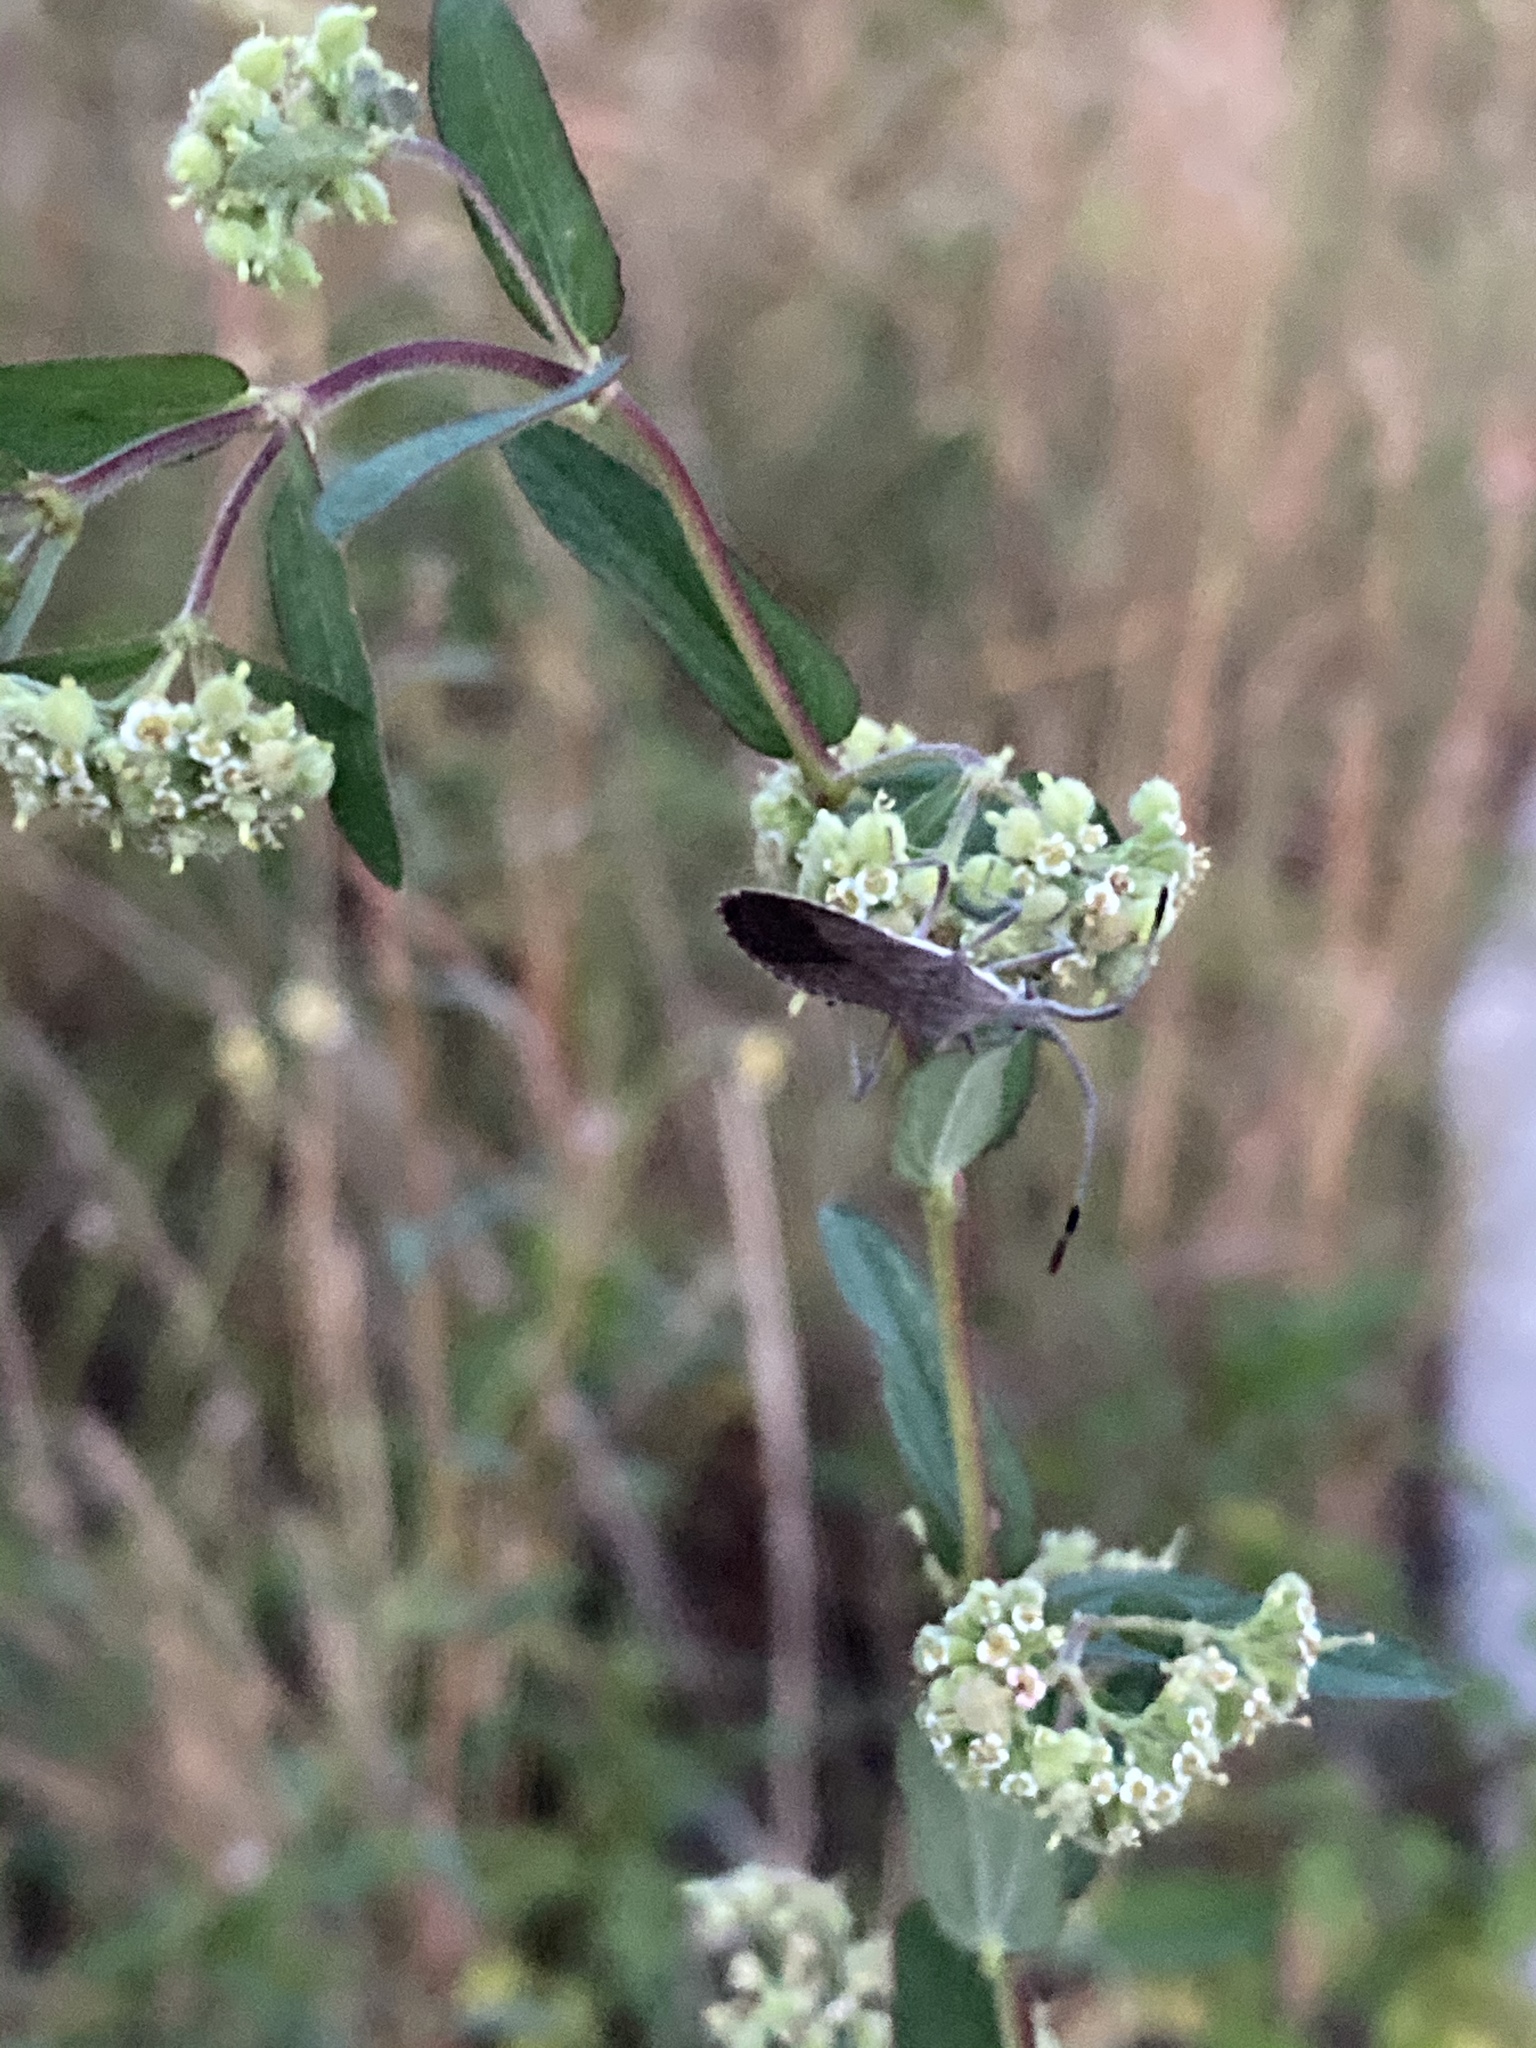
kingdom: Animalia
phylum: Arthropoda
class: Insecta
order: Hemiptera
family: Coreidae
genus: Chariesterus
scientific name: Chariesterus antennator
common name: Flat horned coreid
